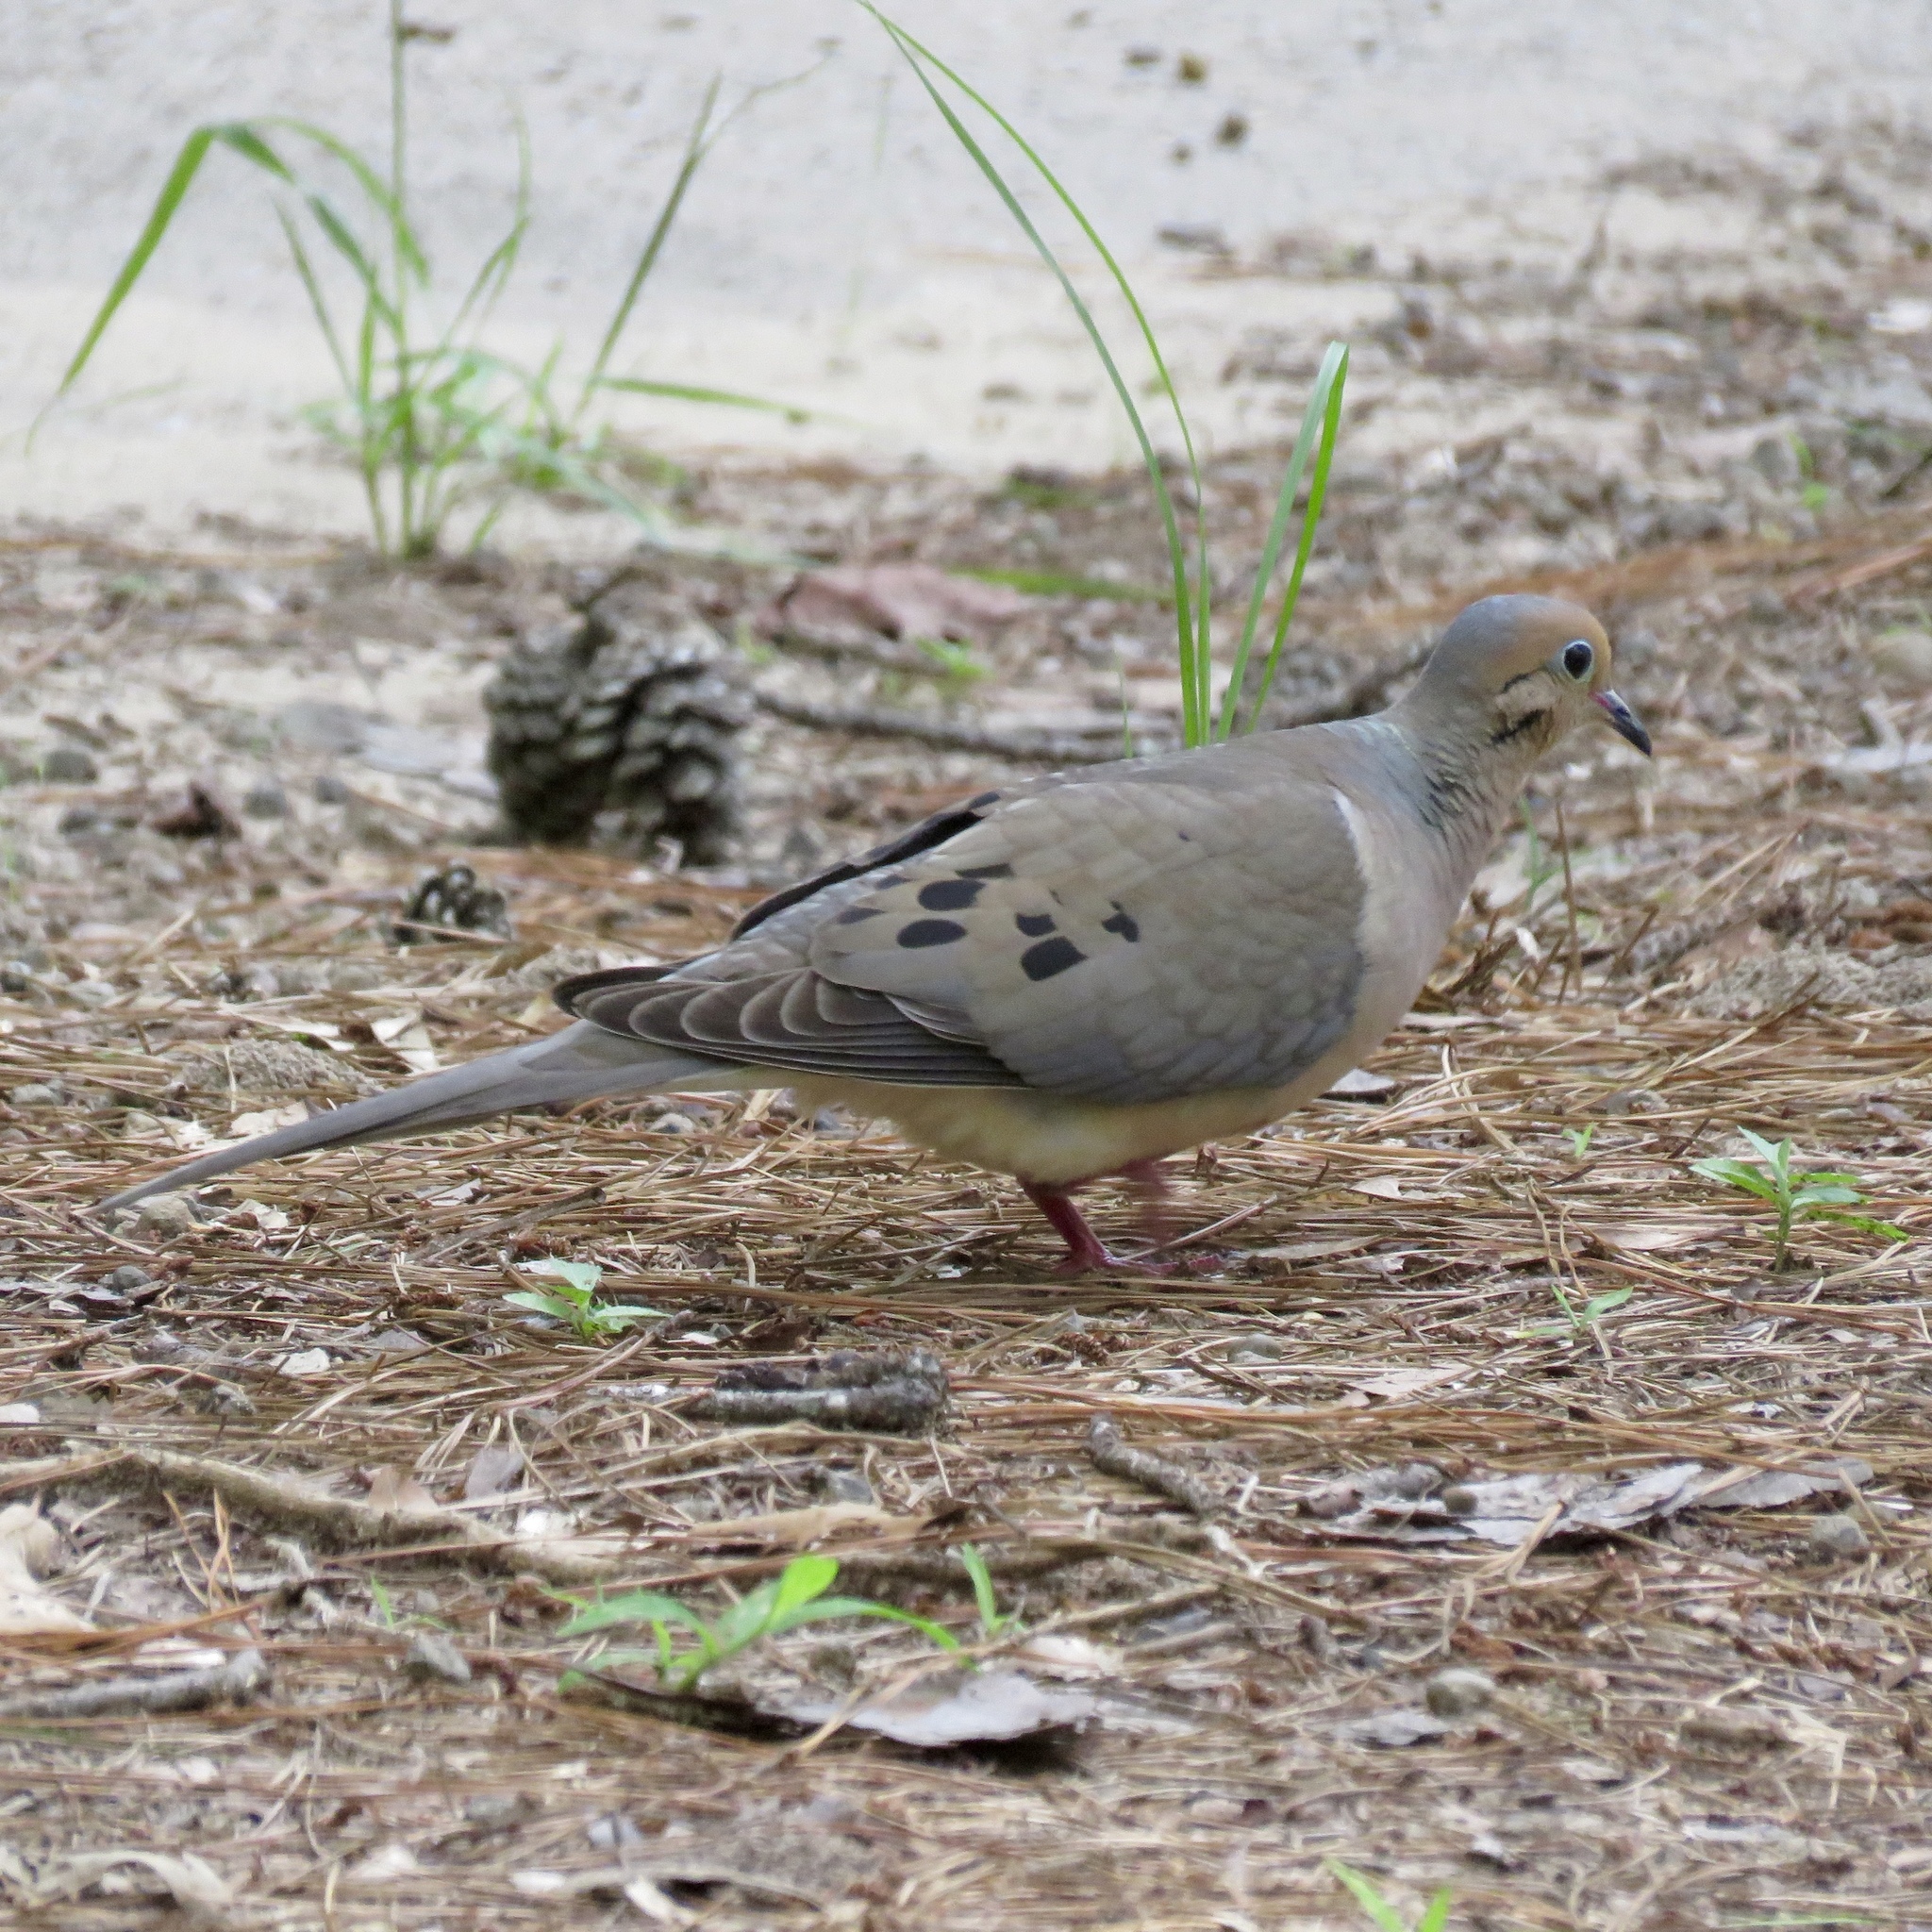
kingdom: Animalia
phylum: Chordata
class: Aves
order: Columbiformes
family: Columbidae
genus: Zenaida
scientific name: Zenaida macroura
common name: Mourning dove
